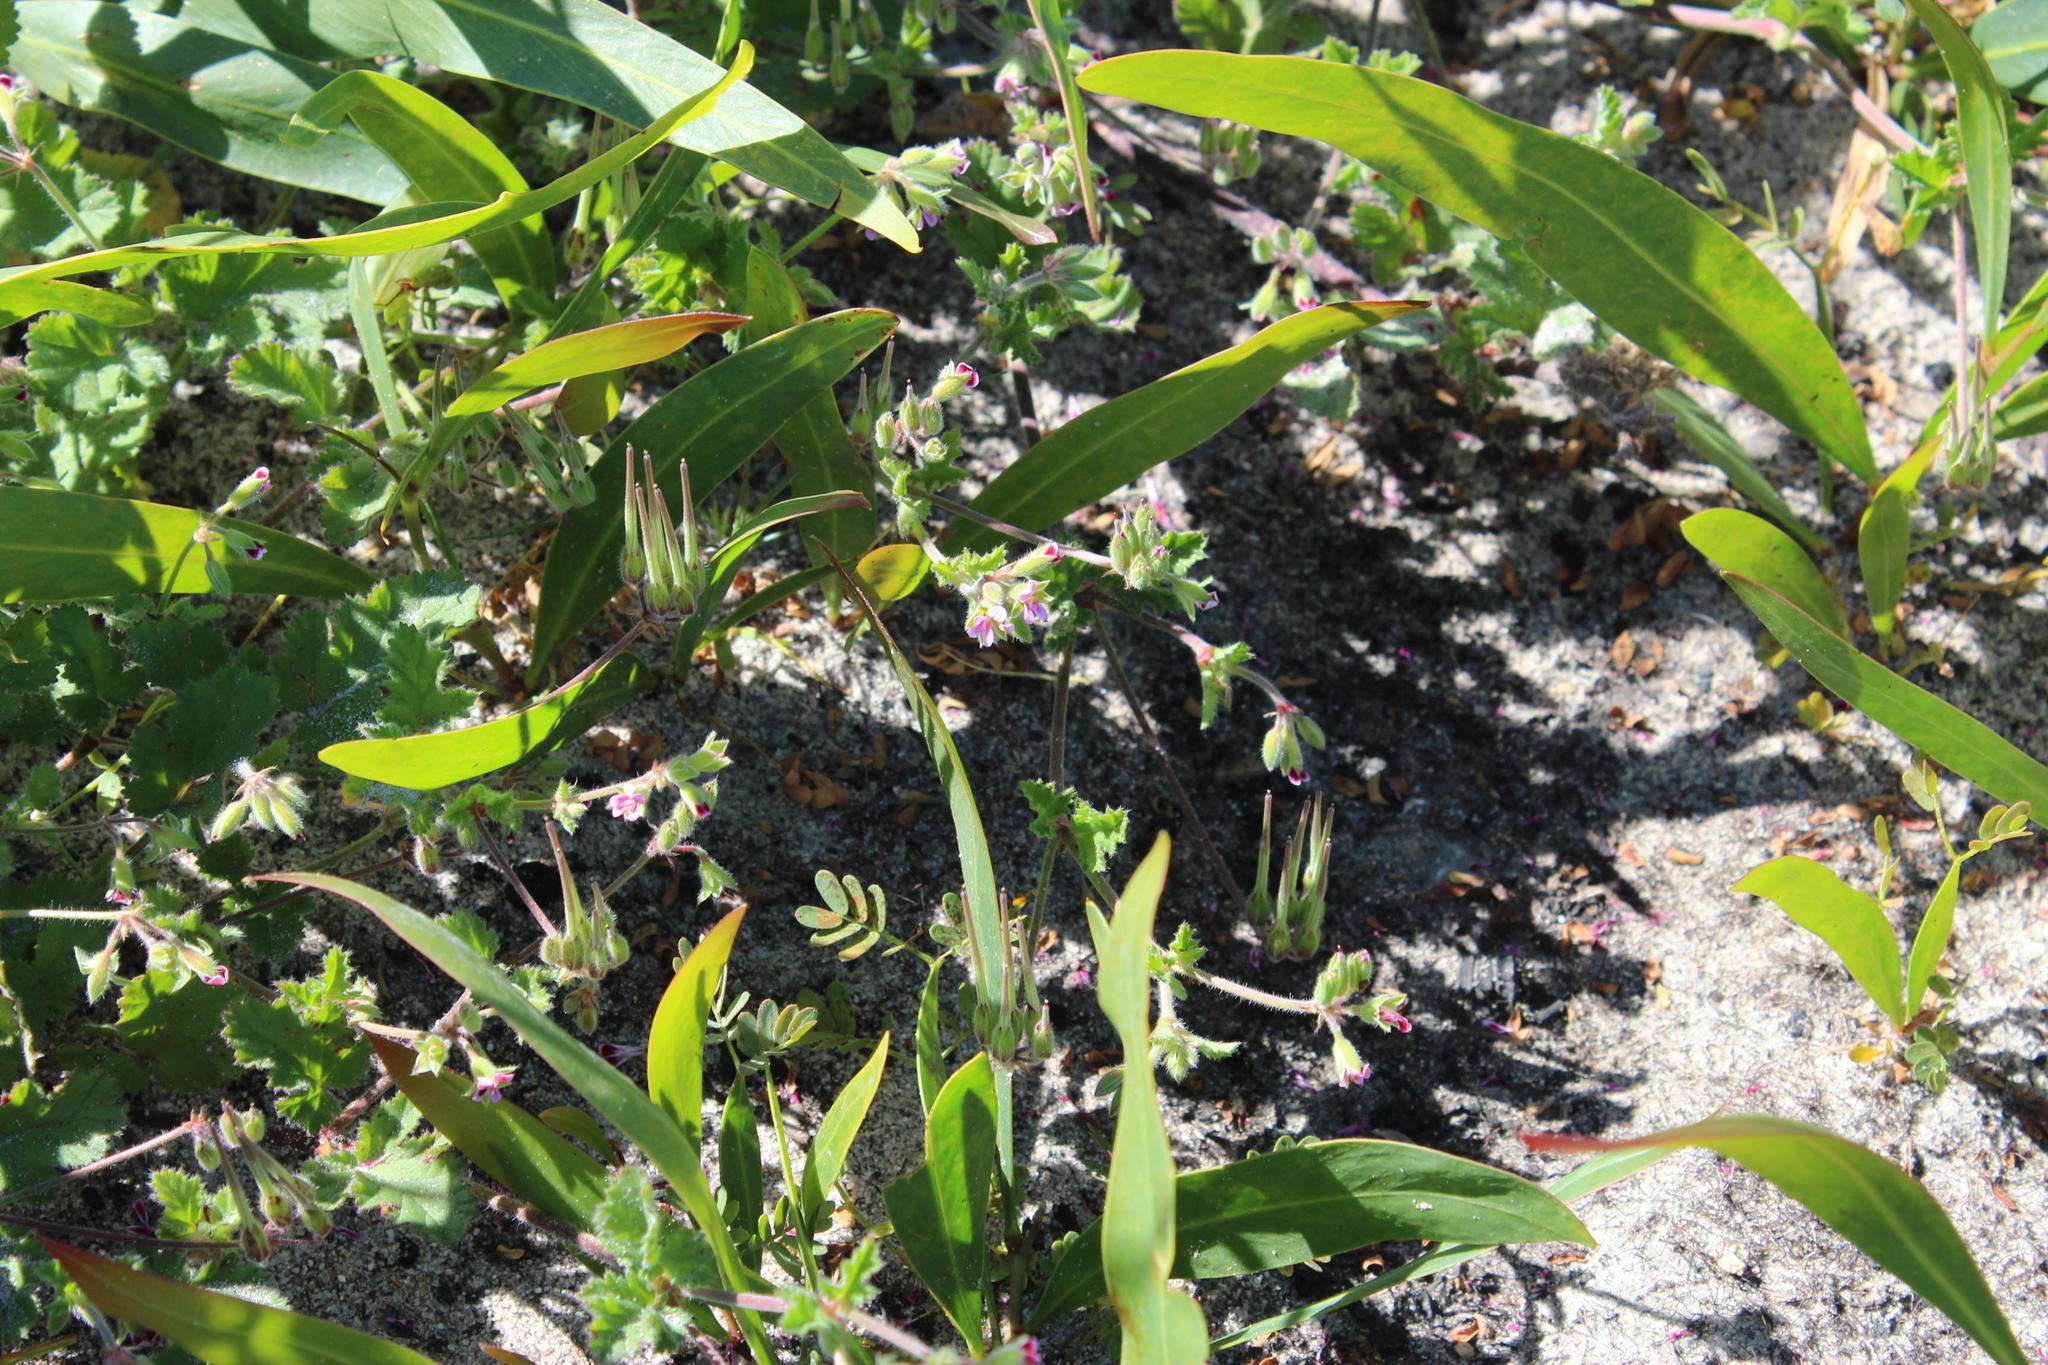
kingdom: Plantae
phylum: Tracheophyta
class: Magnoliopsida
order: Geraniales
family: Geraniaceae
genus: Pelargonium
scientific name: Pelargonium althaeoides
